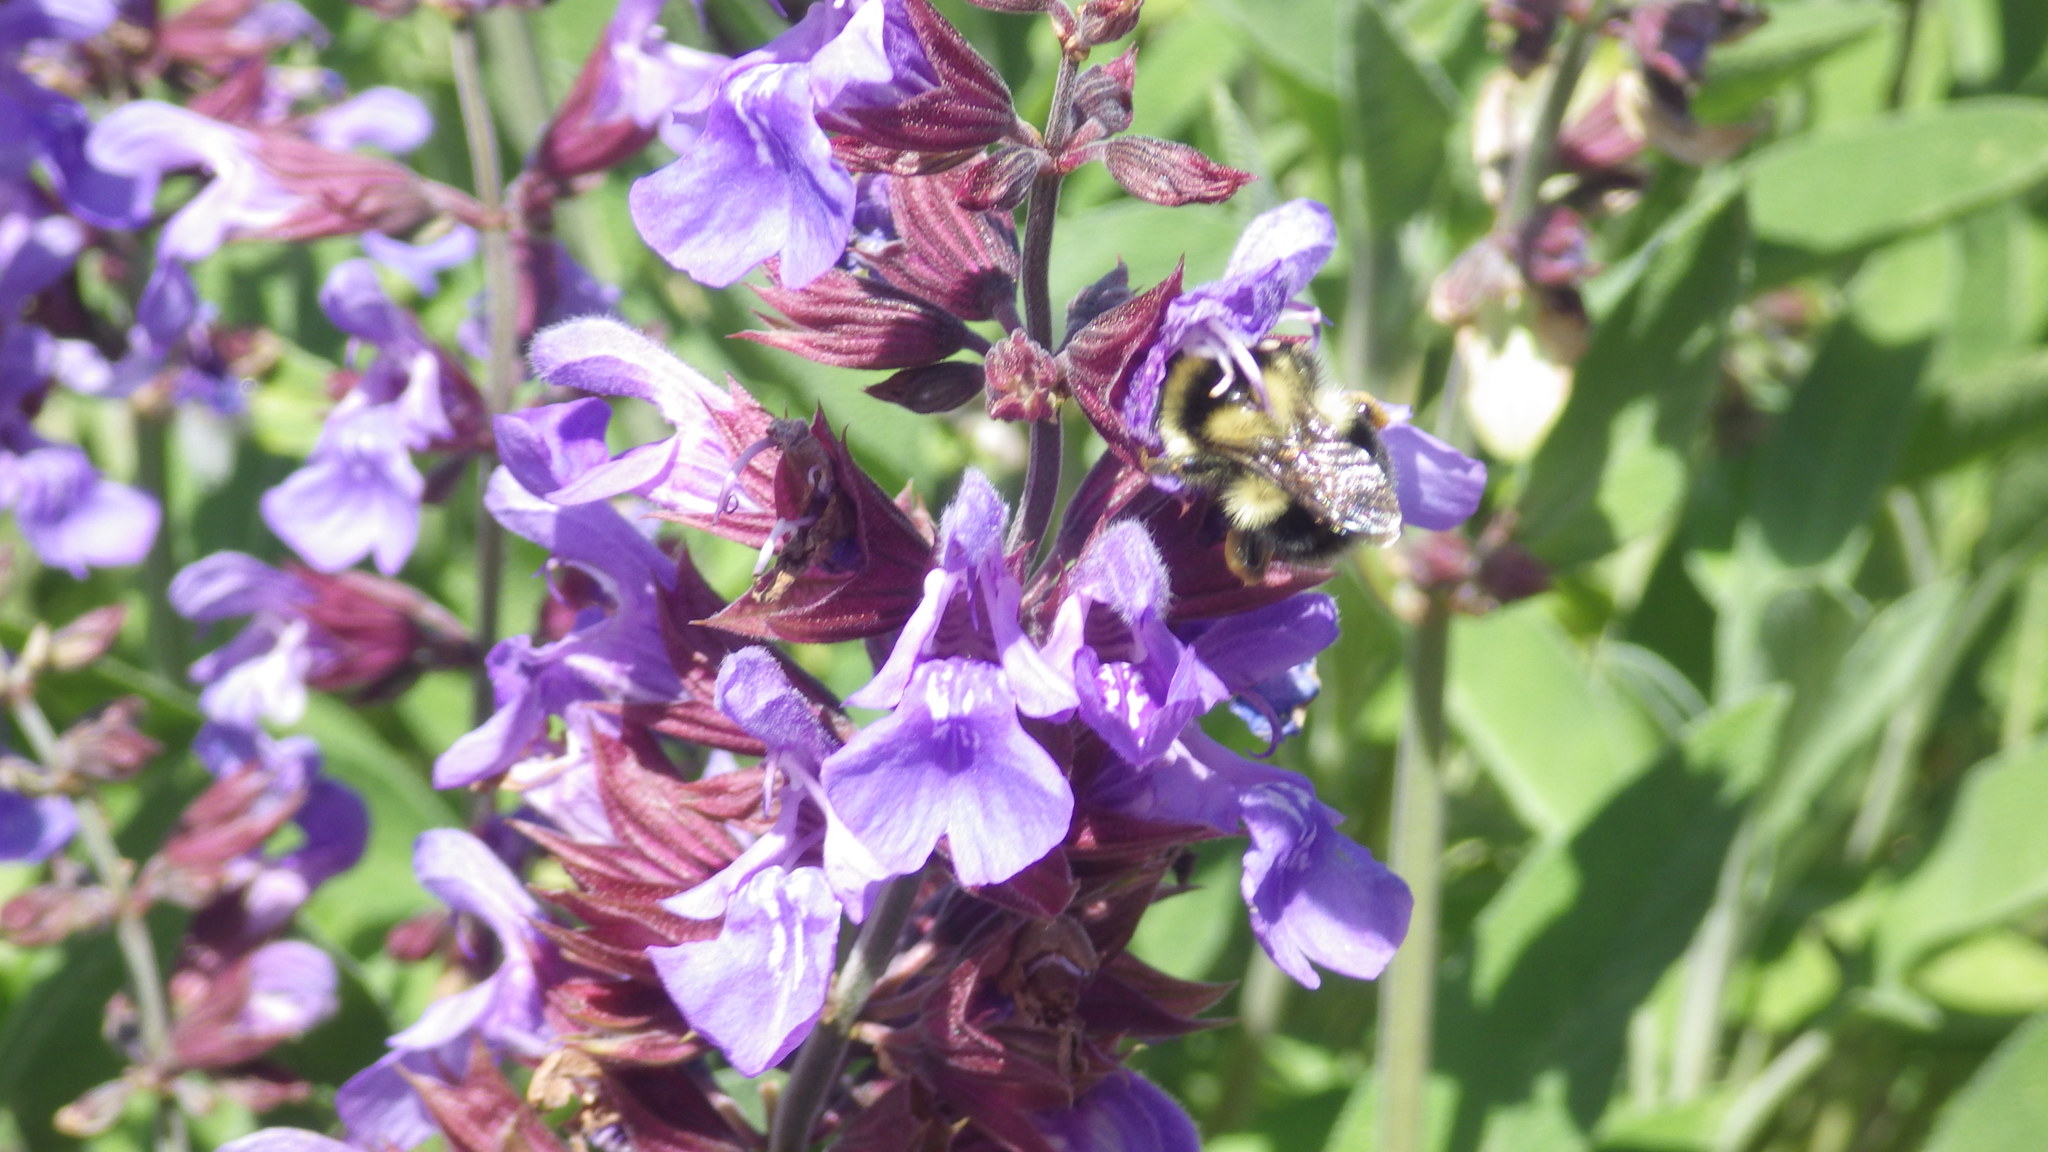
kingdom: Animalia
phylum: Arthropoda
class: Insecta
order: Hymenoptera
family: Apidae
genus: Bombus
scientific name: Bombus melanopygus
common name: Black tail bumble bee
